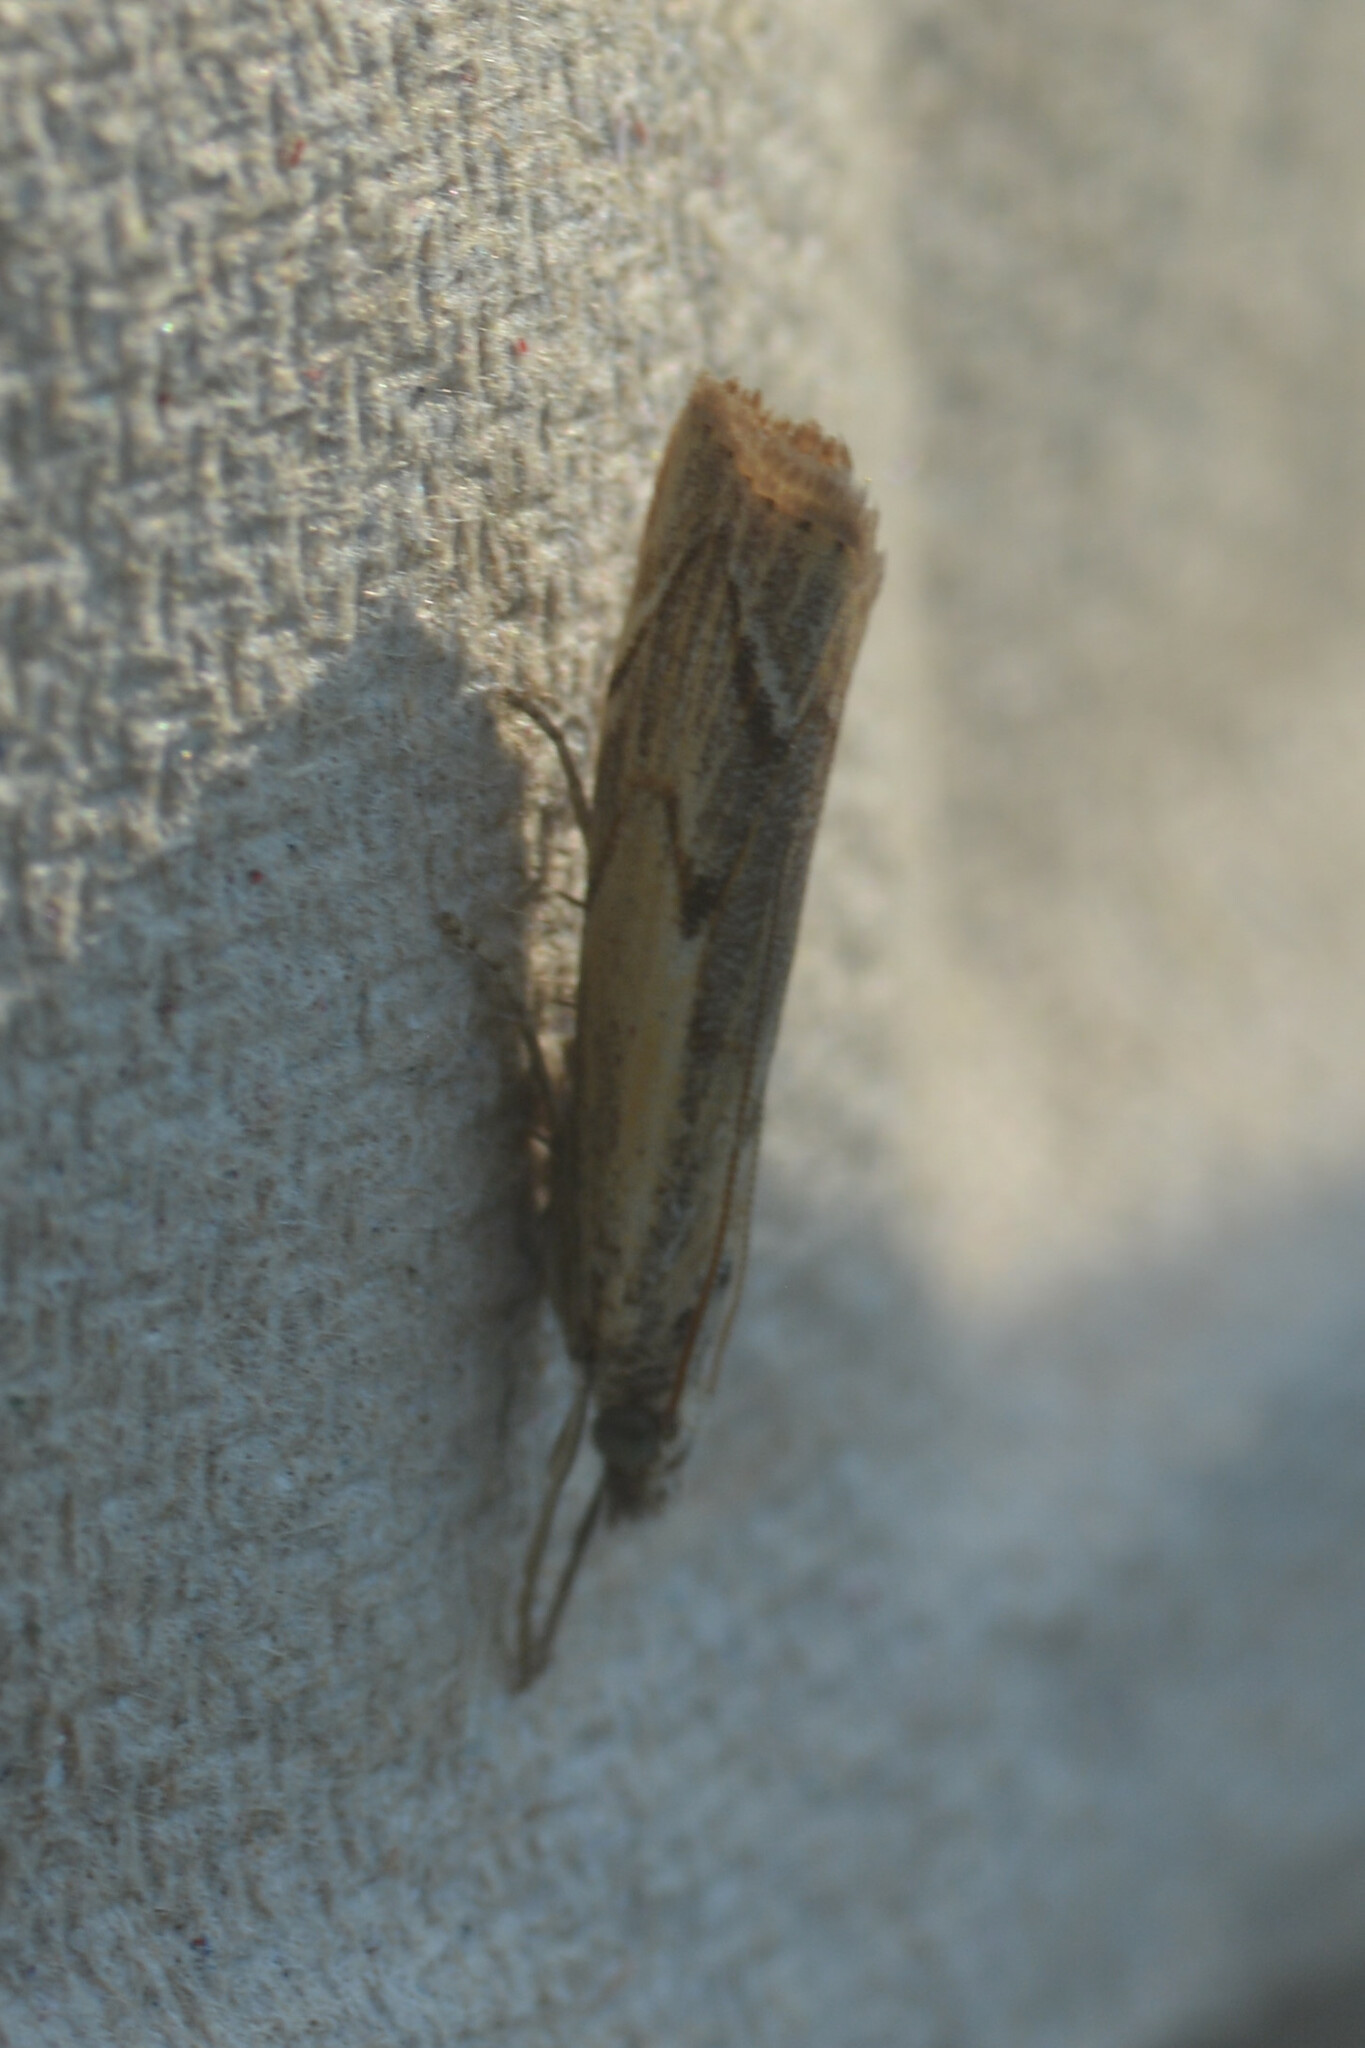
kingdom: Animalia
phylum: Arthropoda
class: Insecta
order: Lepidoptera
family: Crambidae
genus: Agriphila
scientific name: Agriphila geniculea
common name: Elbow-stripe grass-veneer
